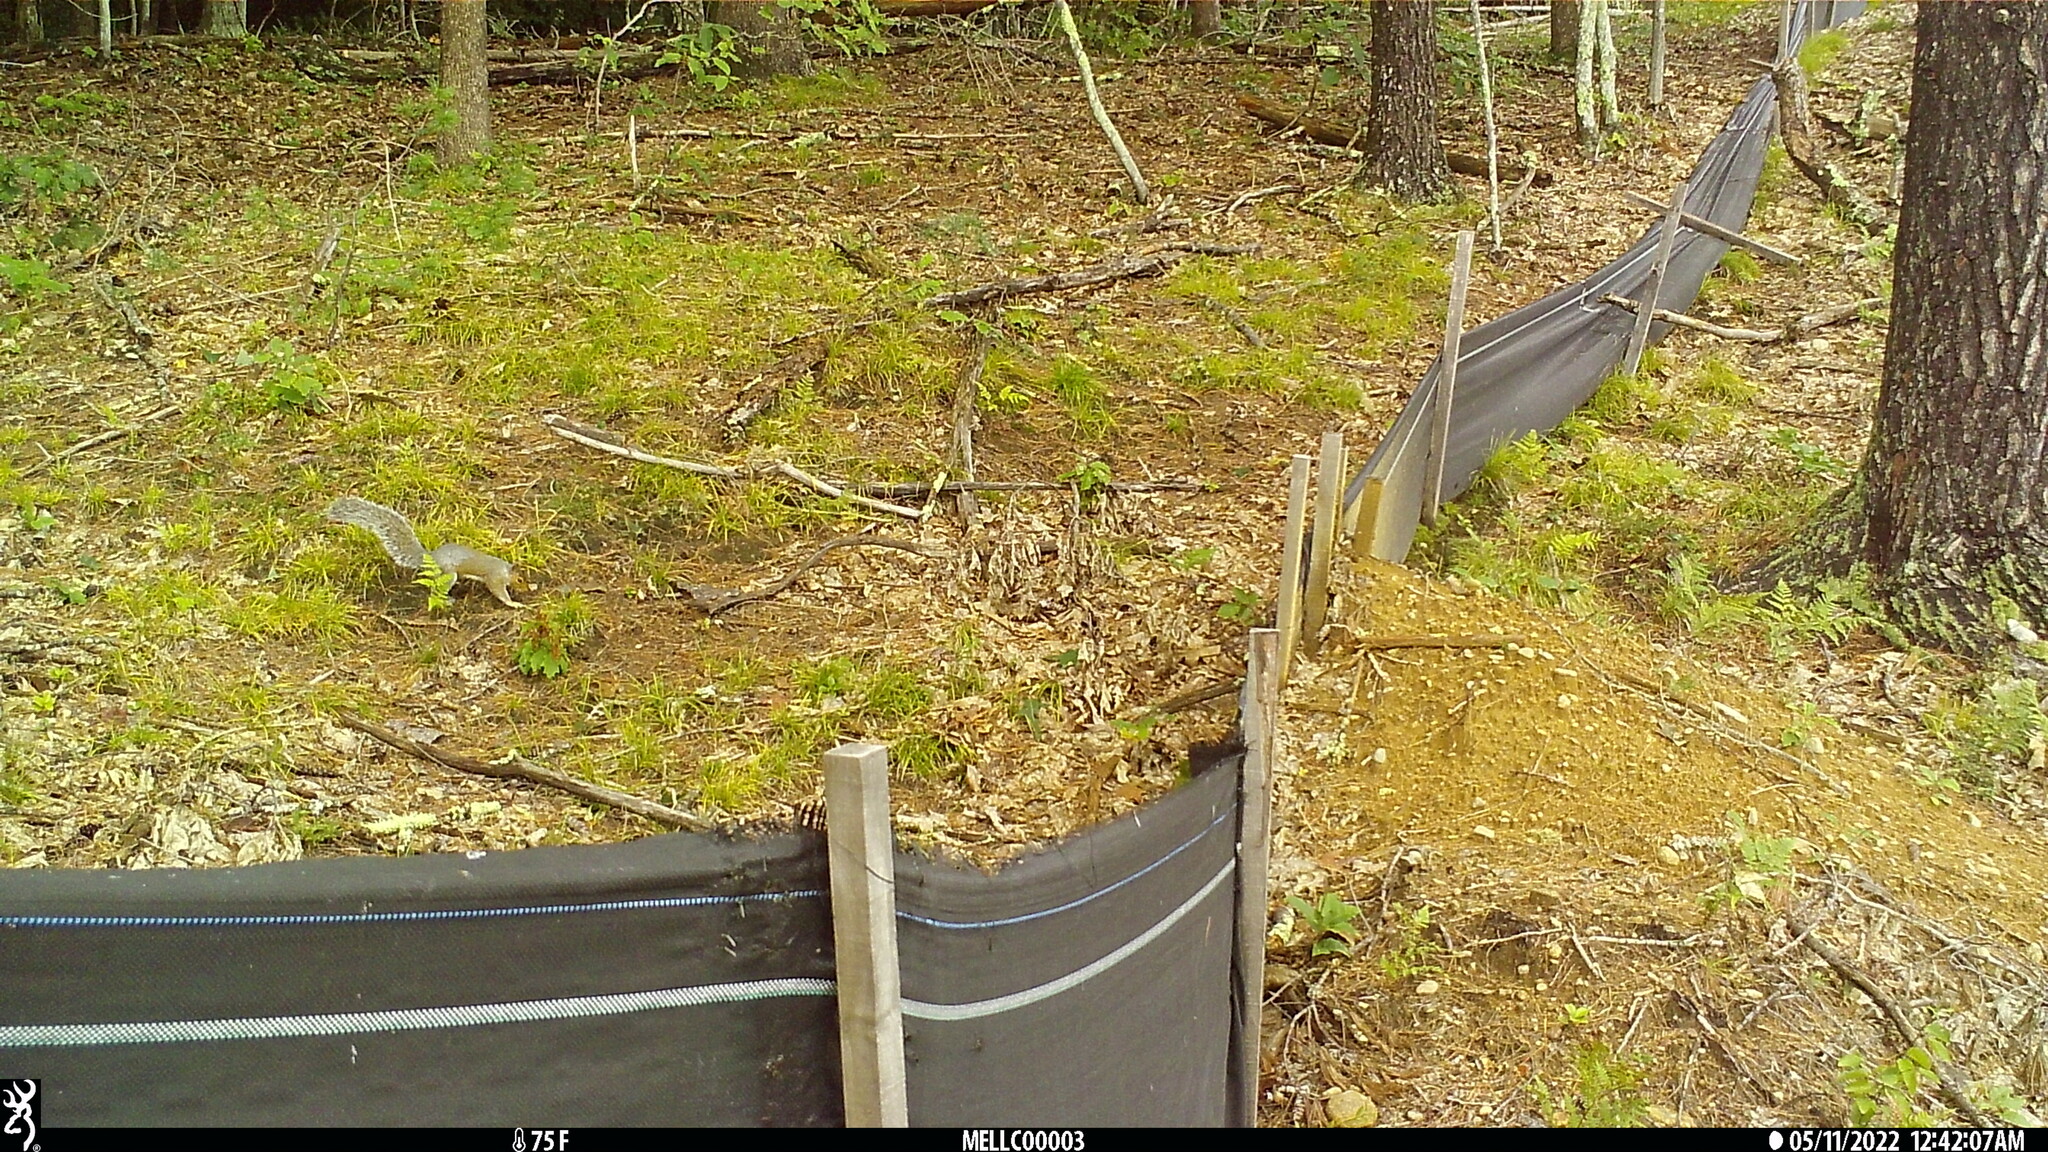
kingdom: Animalia
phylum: Chordata
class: Mammalia
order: Rodentia
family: Sciuridae
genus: Sciurus
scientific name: Sciurus carolinensis
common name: Eastern gray squirrel
